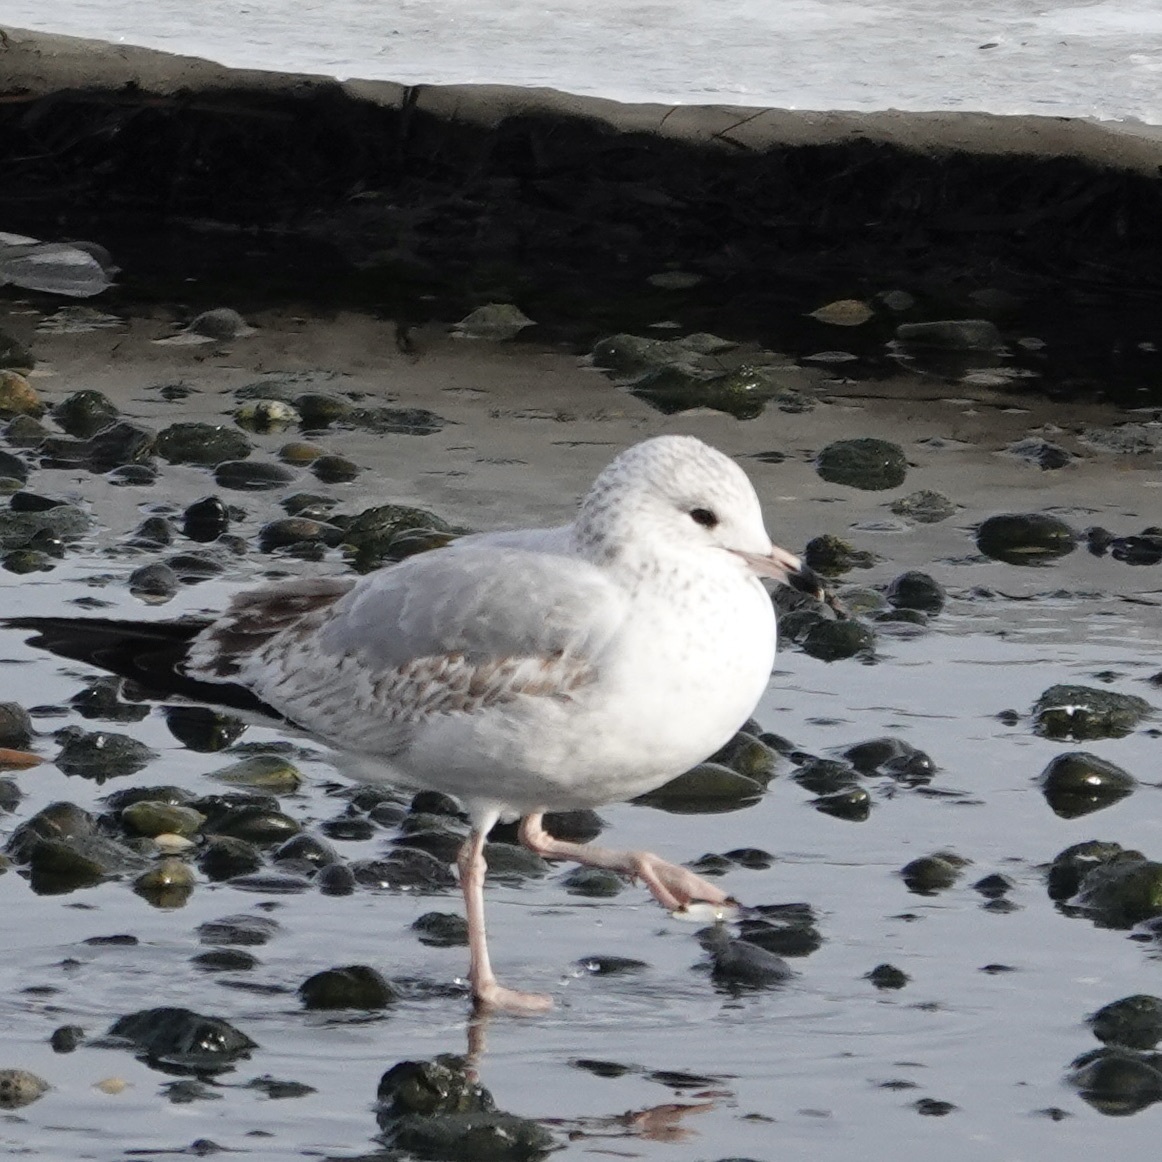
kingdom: Animalia
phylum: Chordata
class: Aves
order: Charadriiformes
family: Laridae
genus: Larus
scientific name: Larus delawarensis
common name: Ring-billed gull
